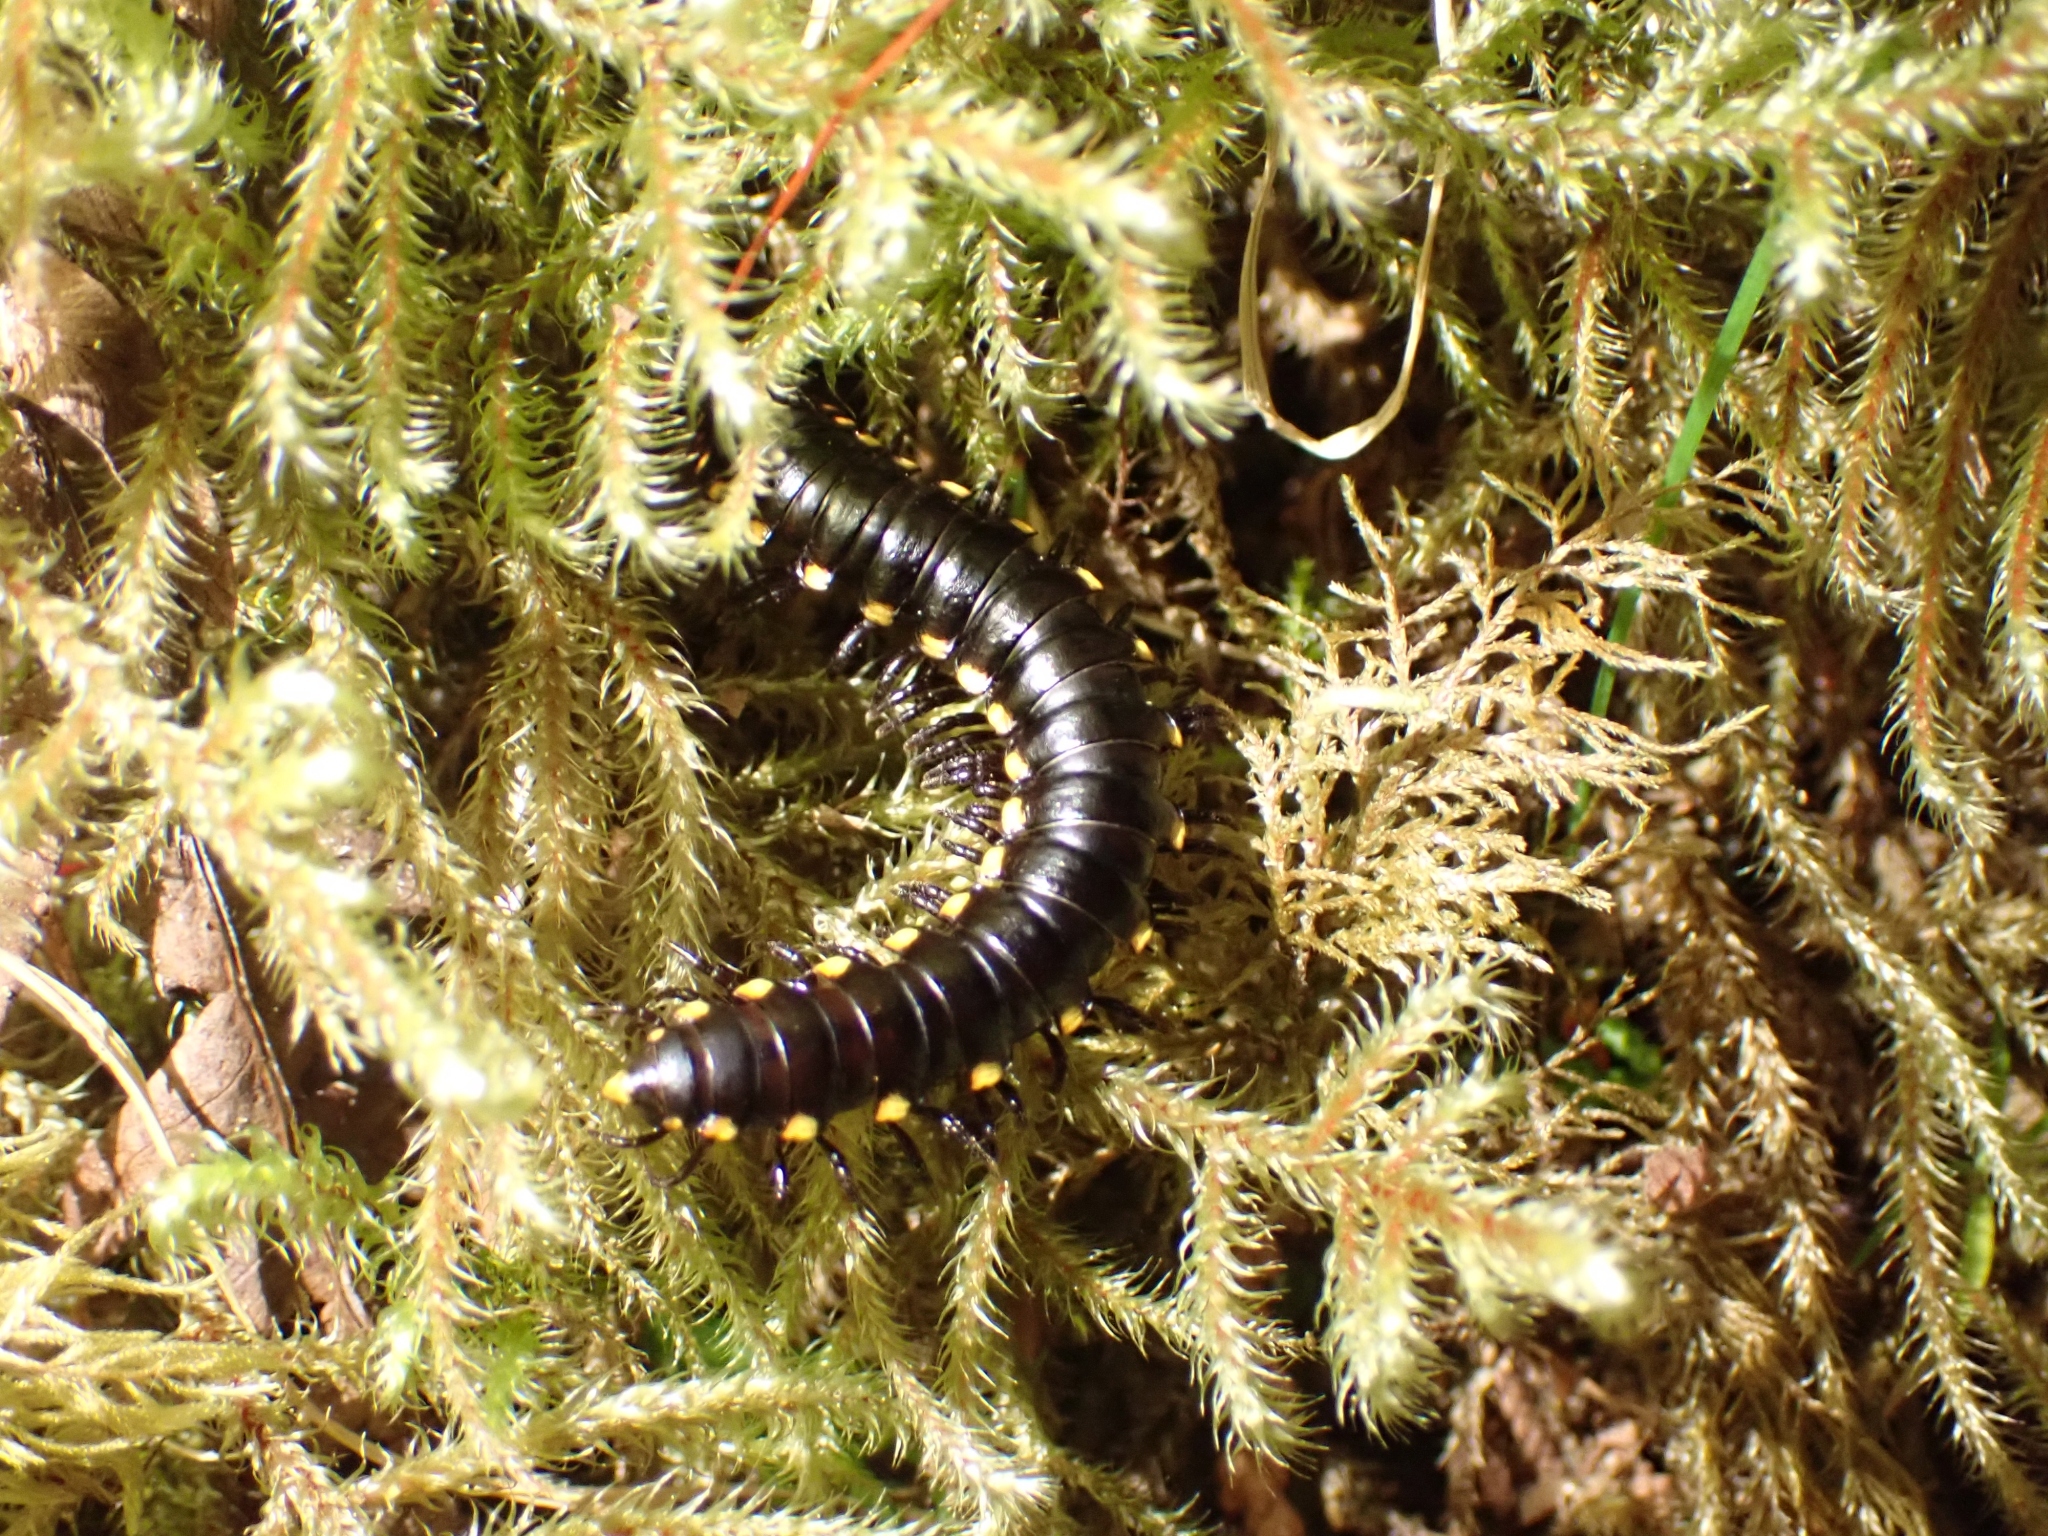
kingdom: Animalia
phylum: Arthropoda
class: Diplopoda
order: Polydesmida
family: Xystodesmidae
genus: Harpaphe
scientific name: Harpaphe haydeniana
